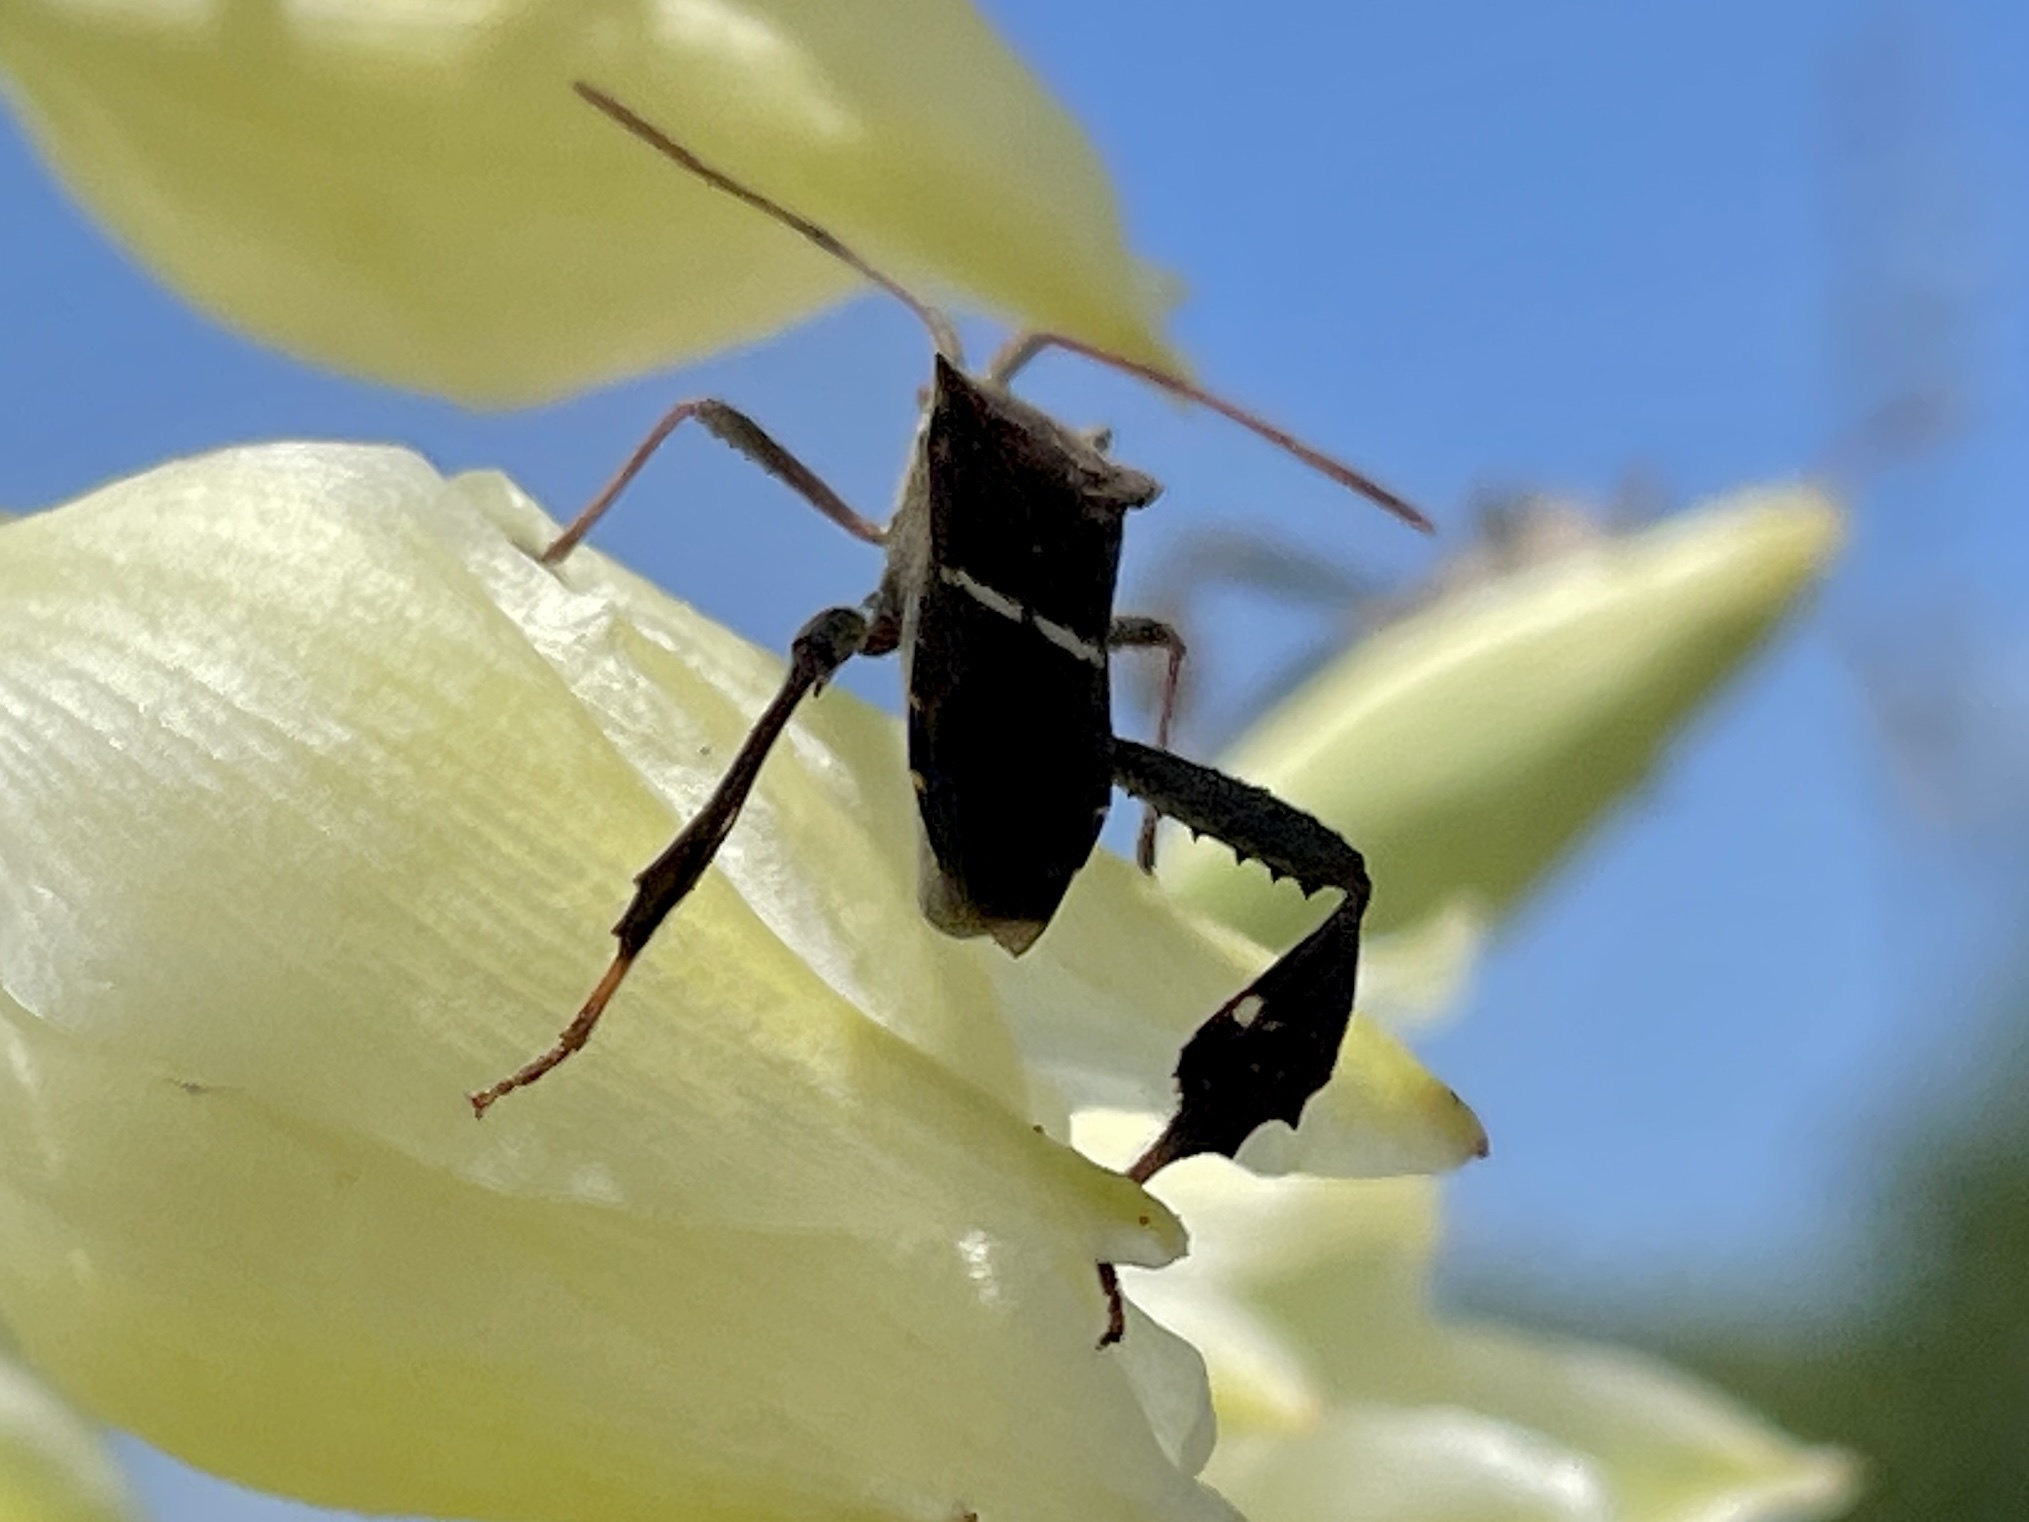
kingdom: Animalia
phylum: Arthropoda
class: Insecta
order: Hemiptera
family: Coreidae
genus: Leptoglossus
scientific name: Leptoglossus phyllopus
